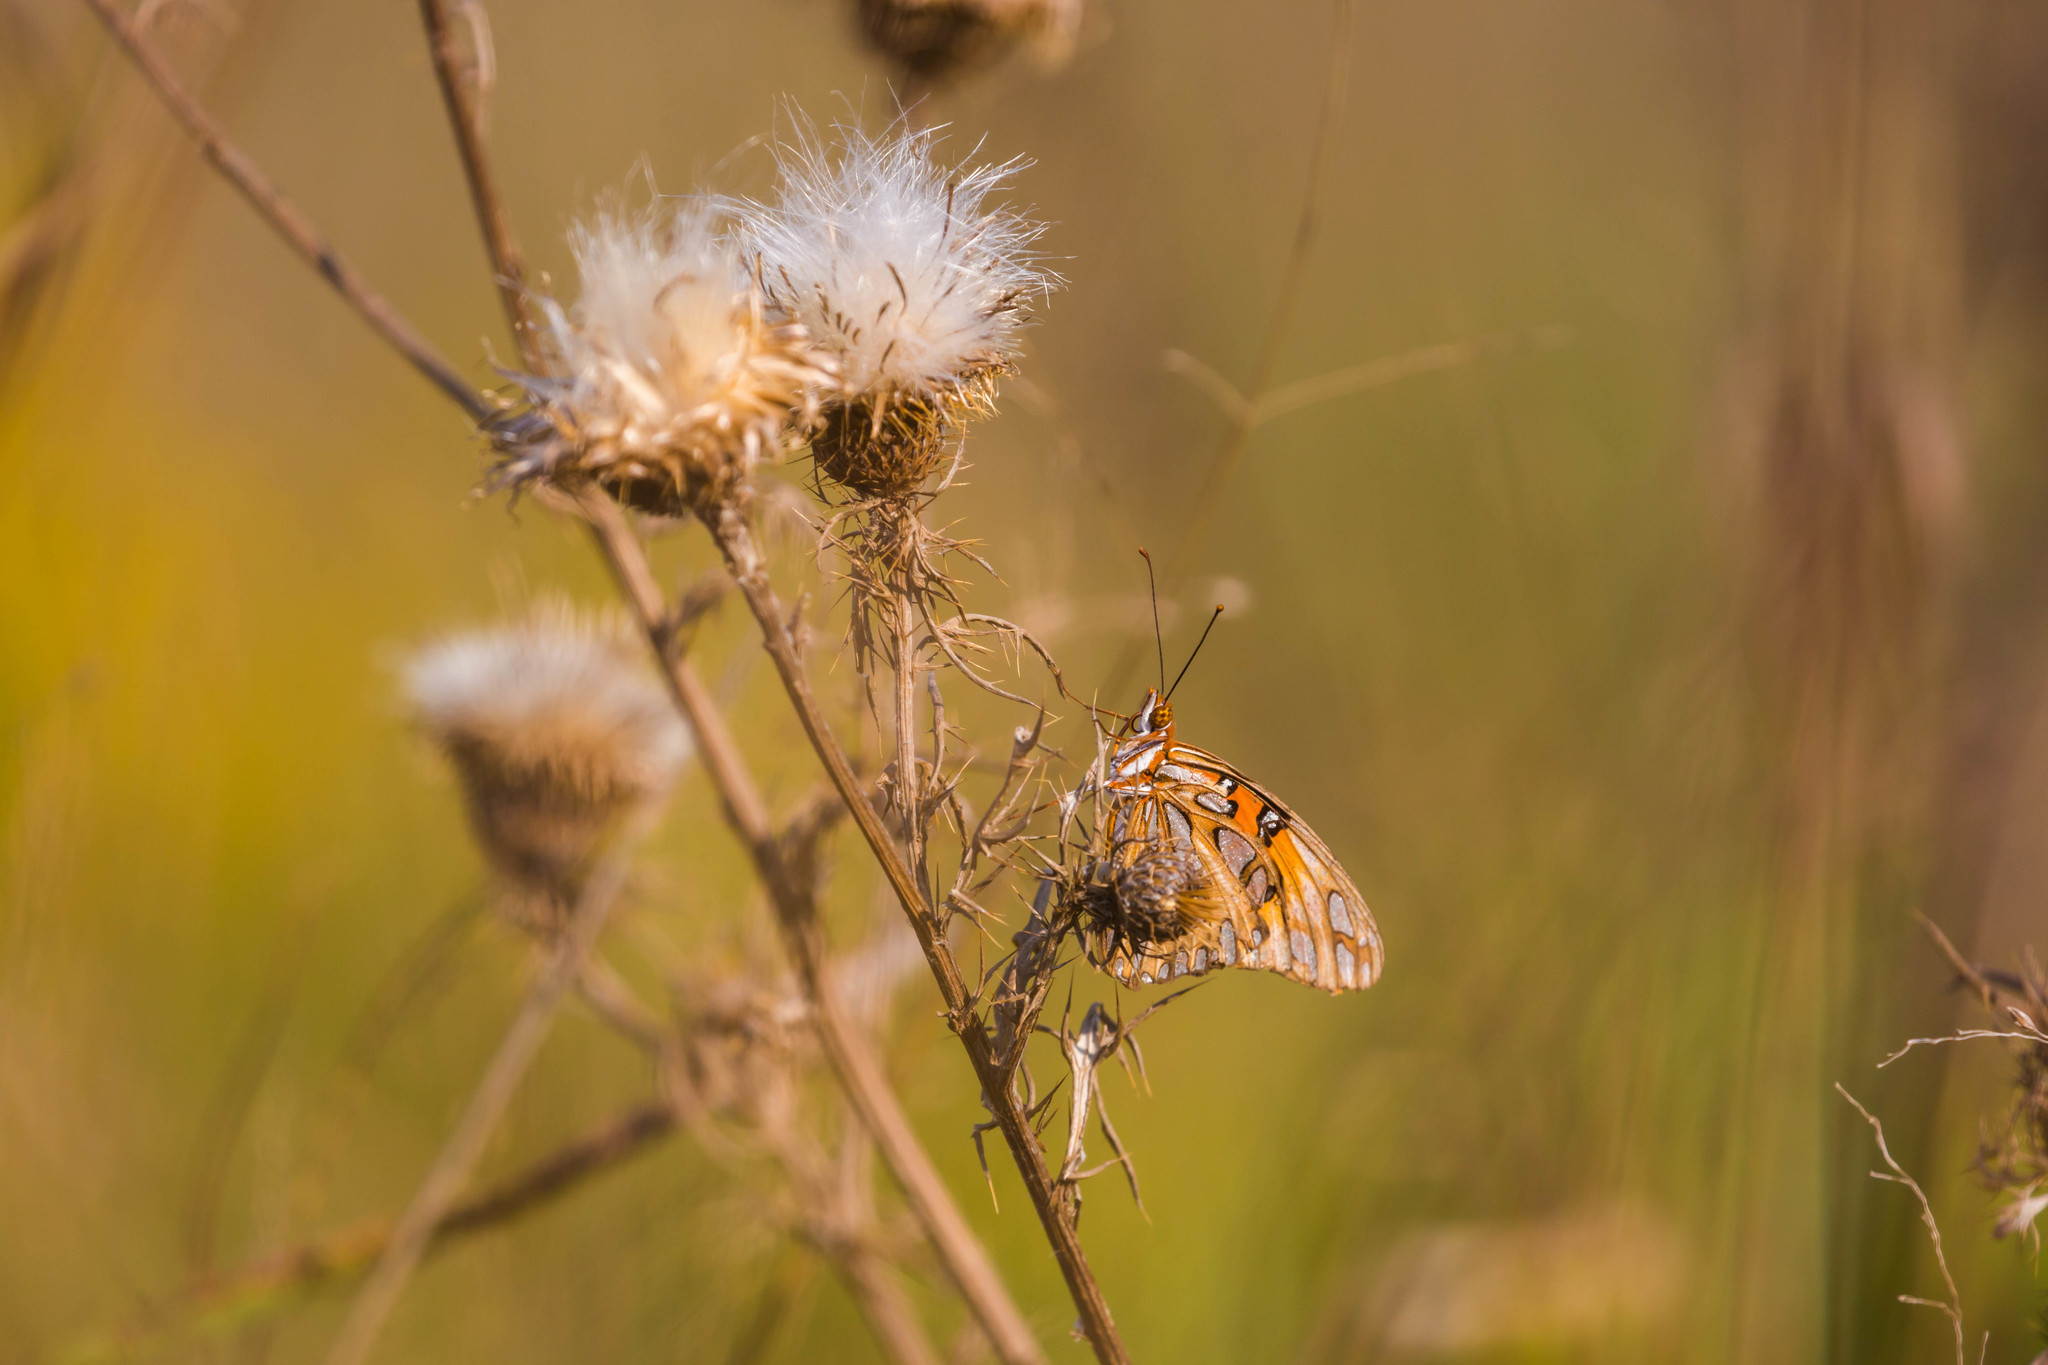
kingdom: Animalia
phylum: Arthropoda
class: Insecta
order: Lepidoptera
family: Nymphalidae
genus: Dione
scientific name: Dione vanillae
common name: Gulf fritillary
